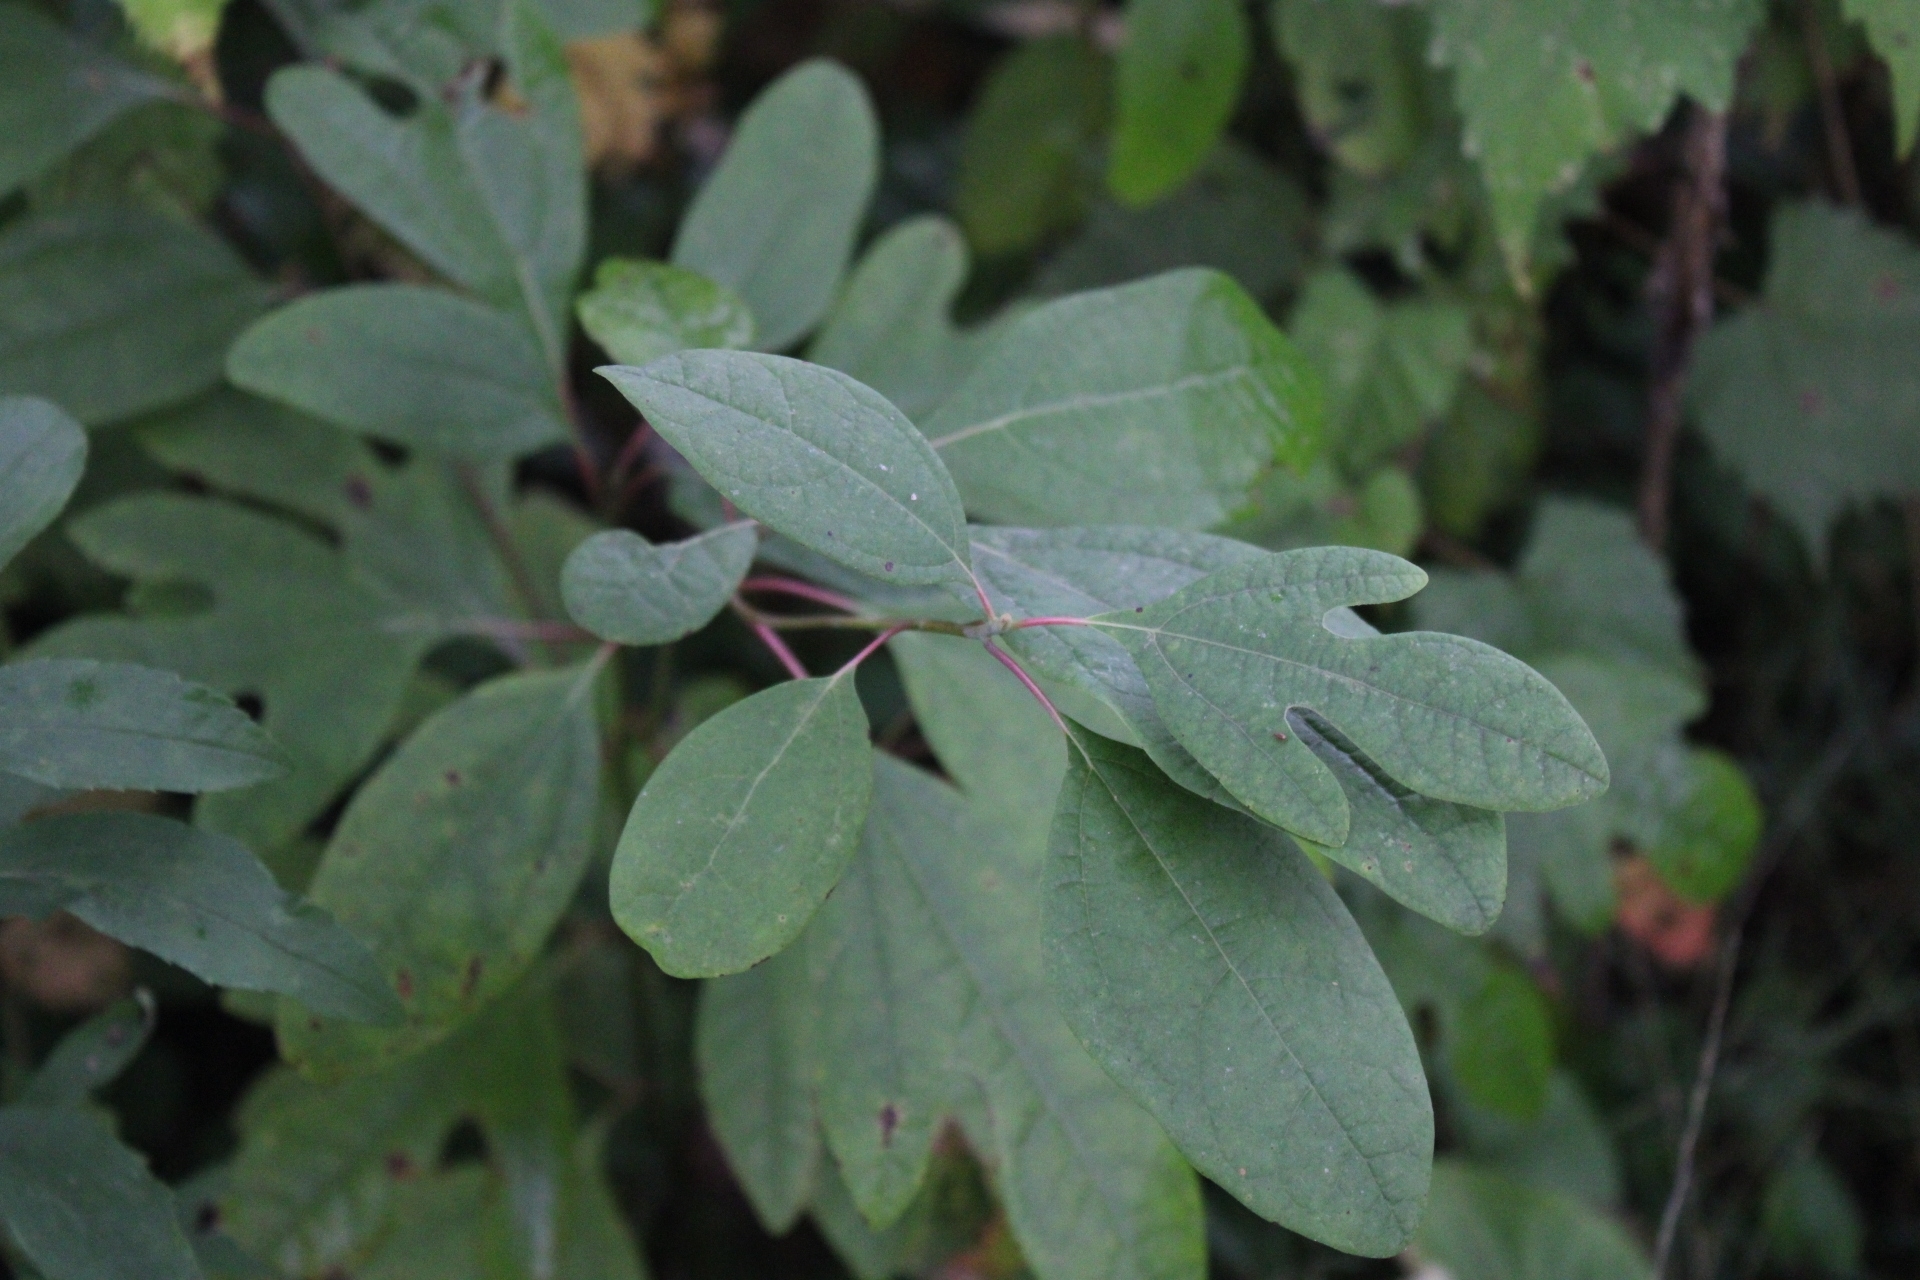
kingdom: Plantae
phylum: Tracheophyta
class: Magnoliopsida
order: Laurales
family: Lauraceae
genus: Sassafras
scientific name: Sassafras albidum
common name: Sassafras
